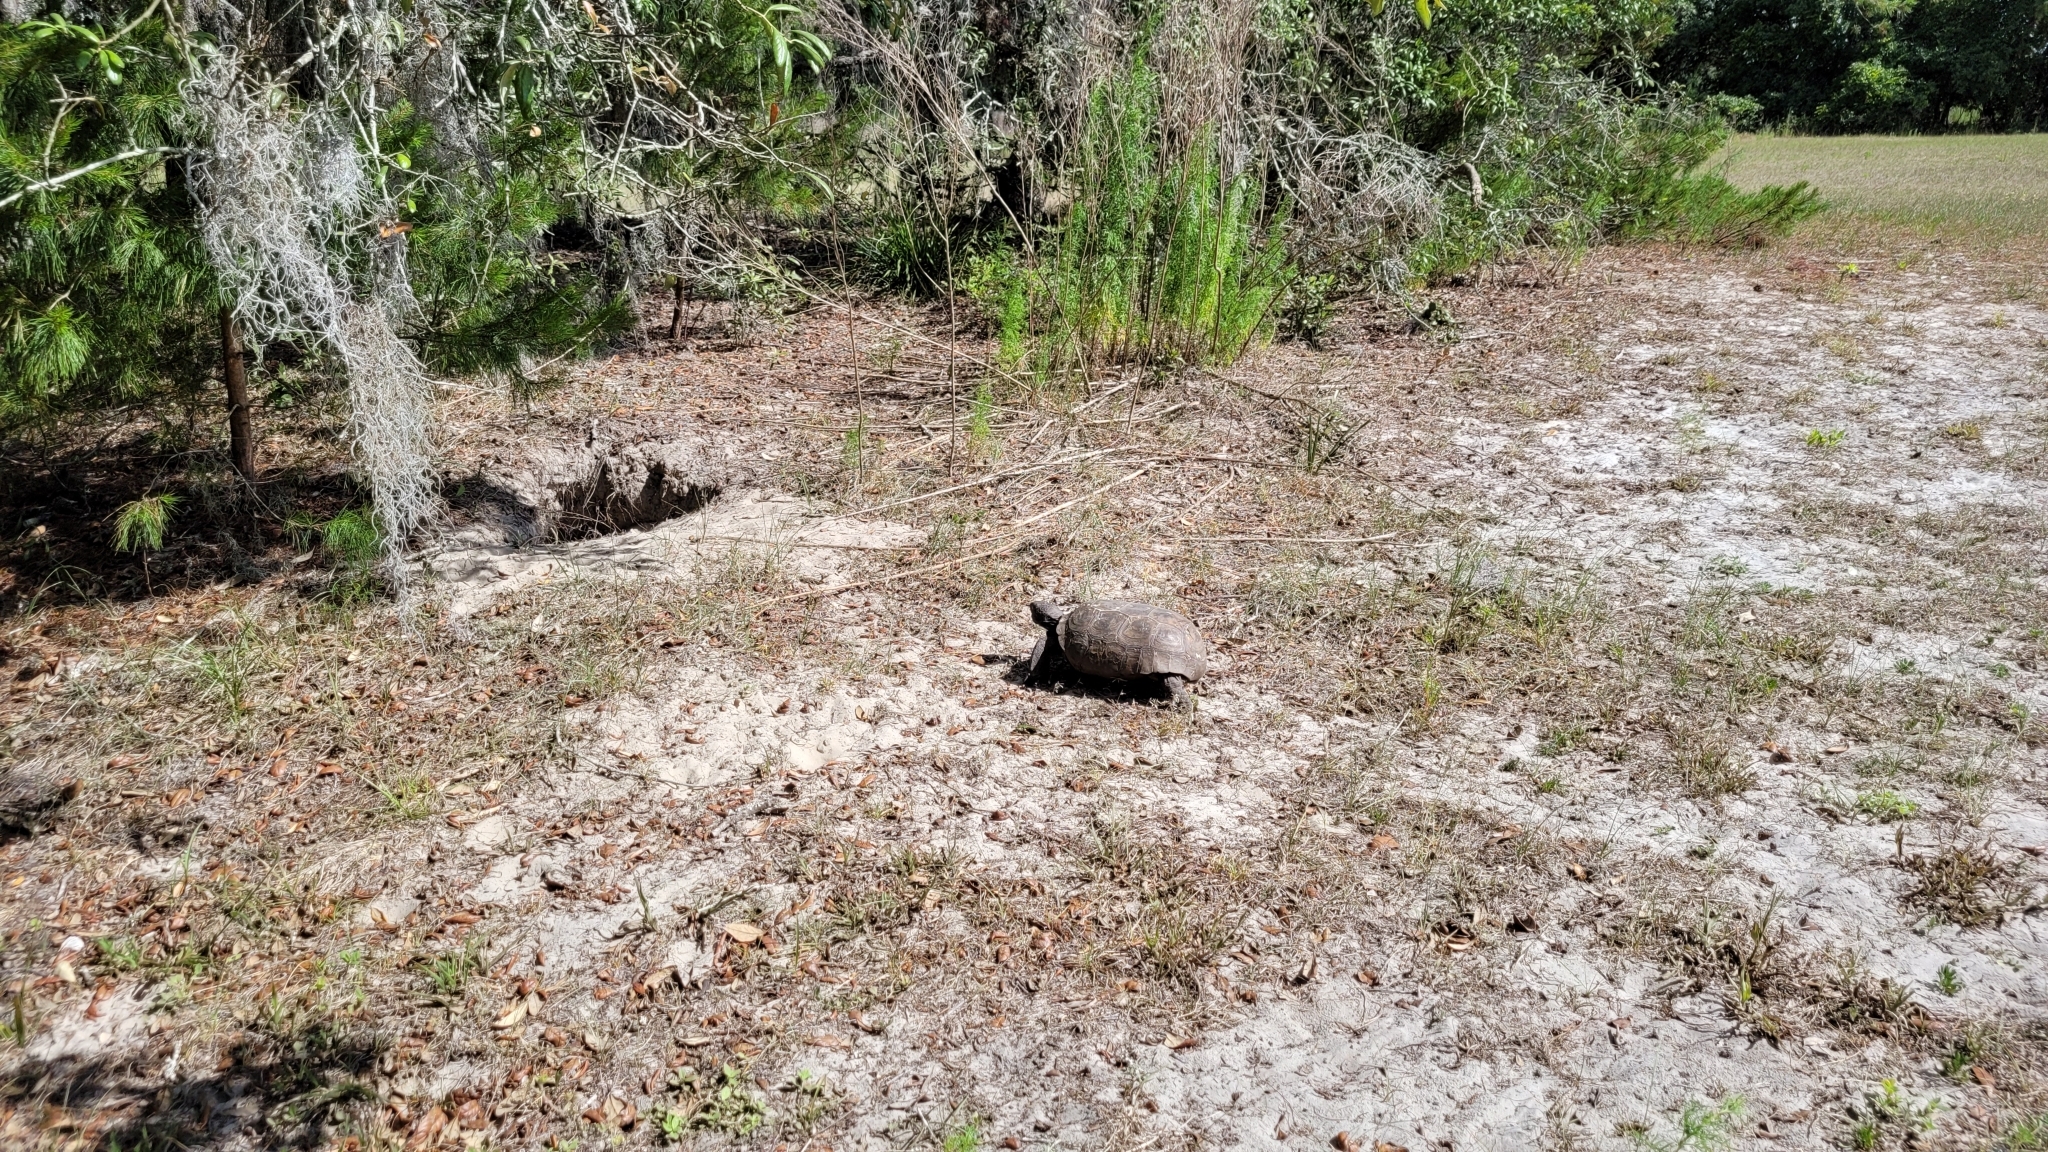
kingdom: Animalia
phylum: Chordata
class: Testudines
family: Testudinidae
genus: Gopherus
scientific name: Gopherus polyphemus
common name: Florida gopher tortoise
